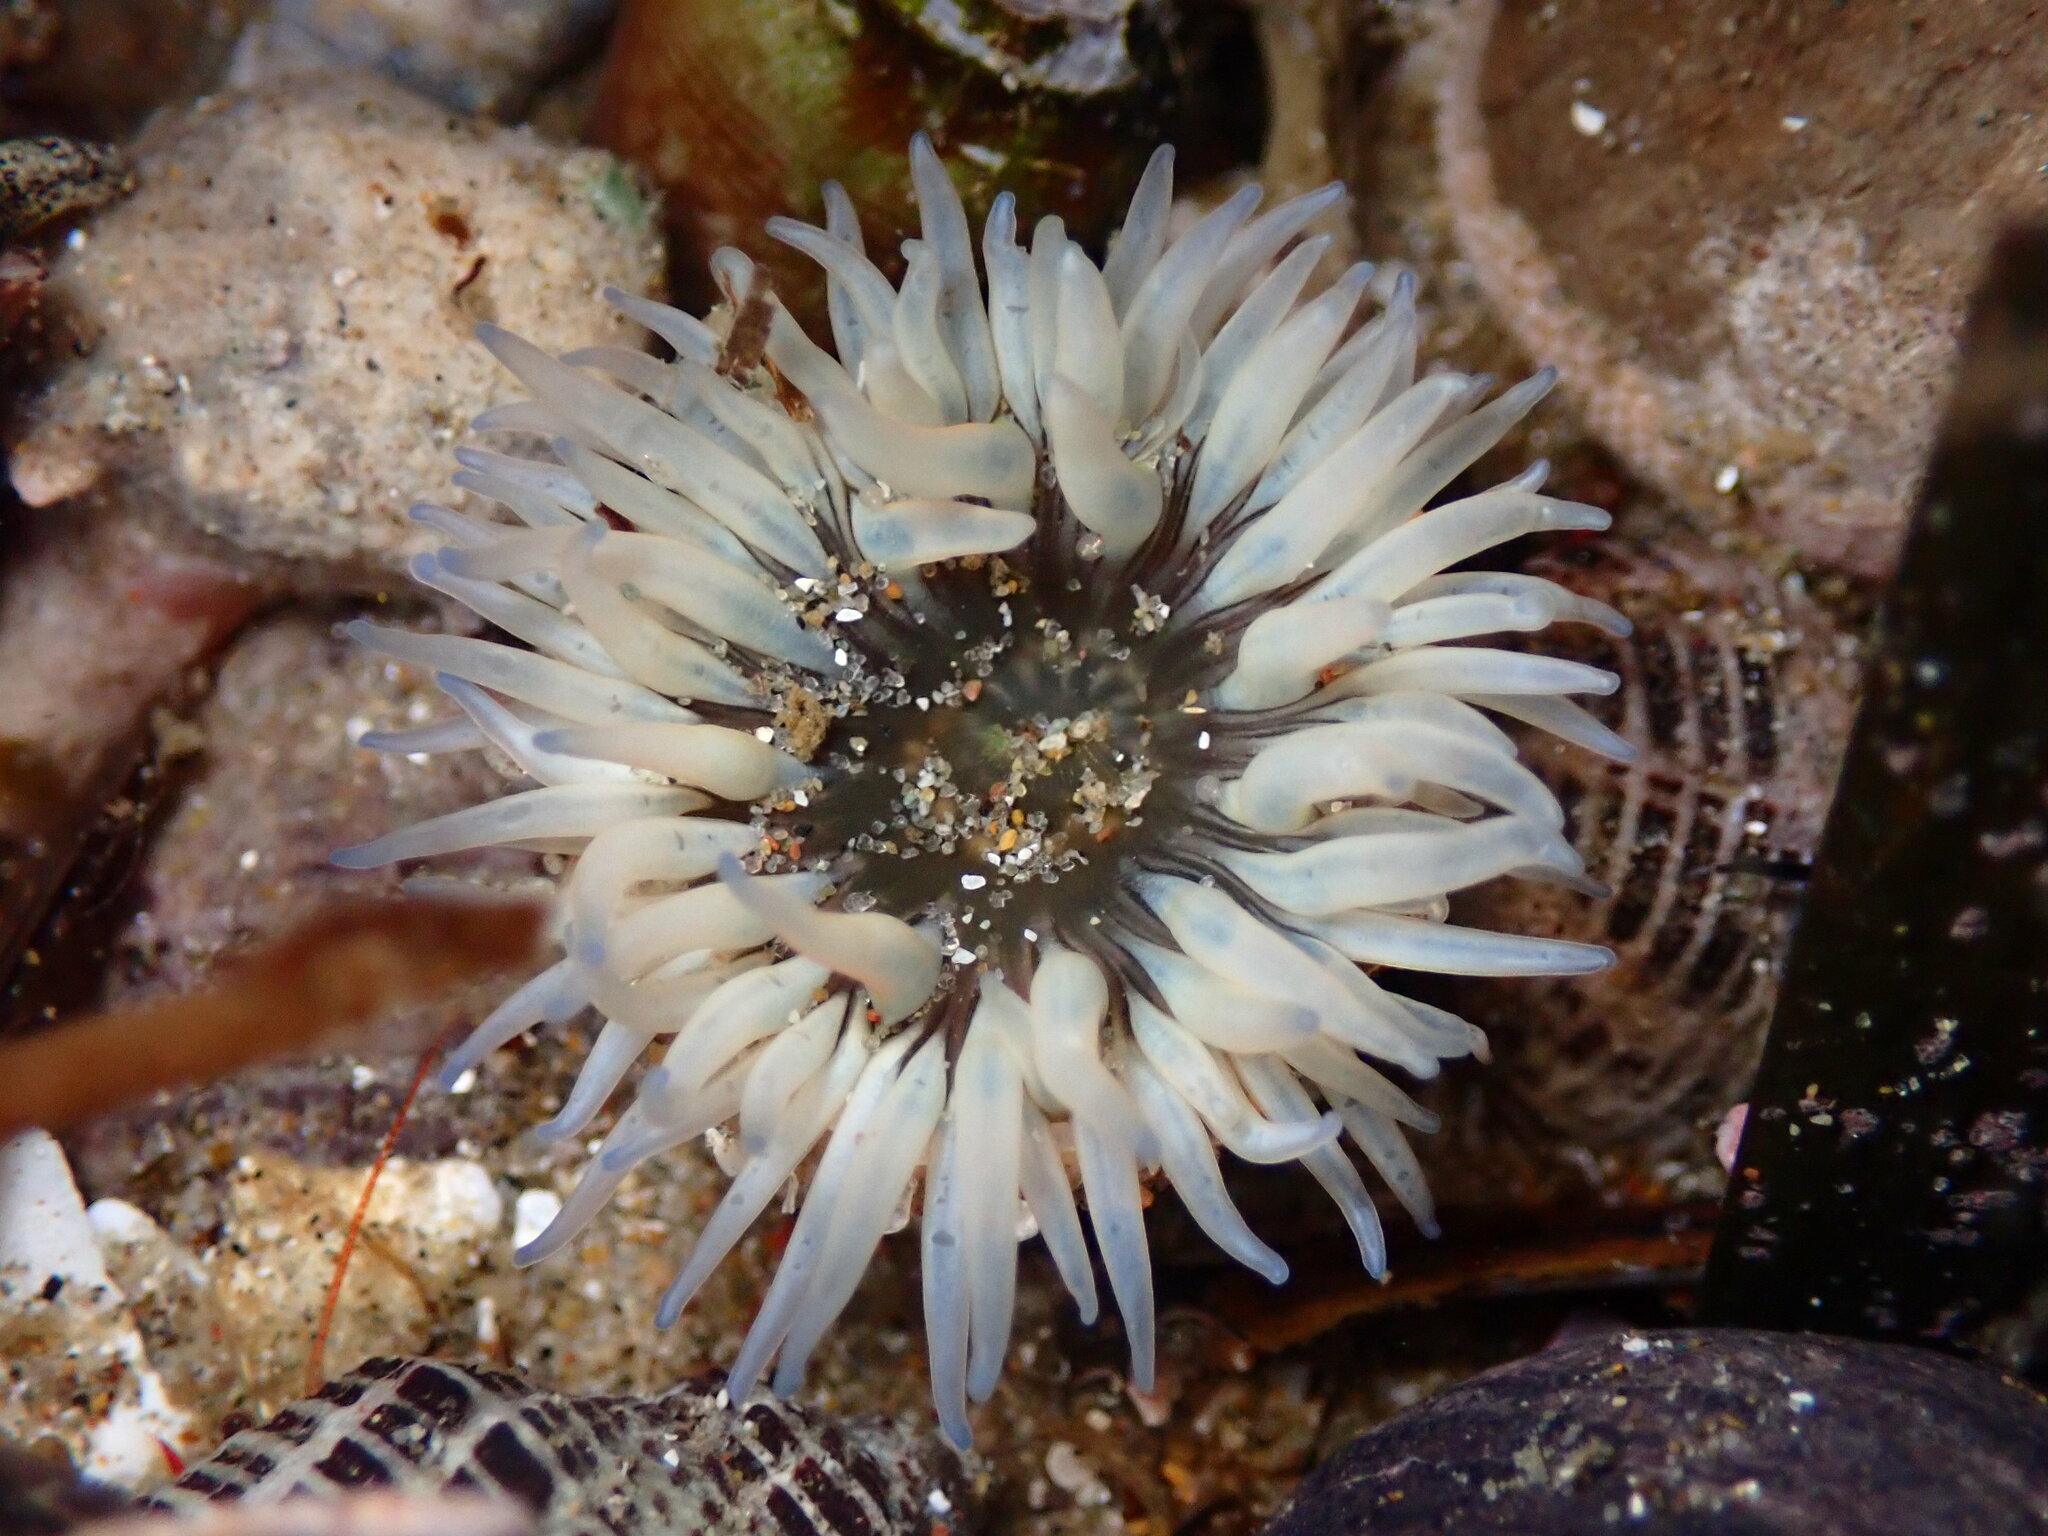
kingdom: Animalia
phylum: Cnidaria
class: Anthozoa
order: Actiniaria
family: Actiniidae
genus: Anthopleura
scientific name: Anthopleura artemisia
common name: Buried sea anemone
